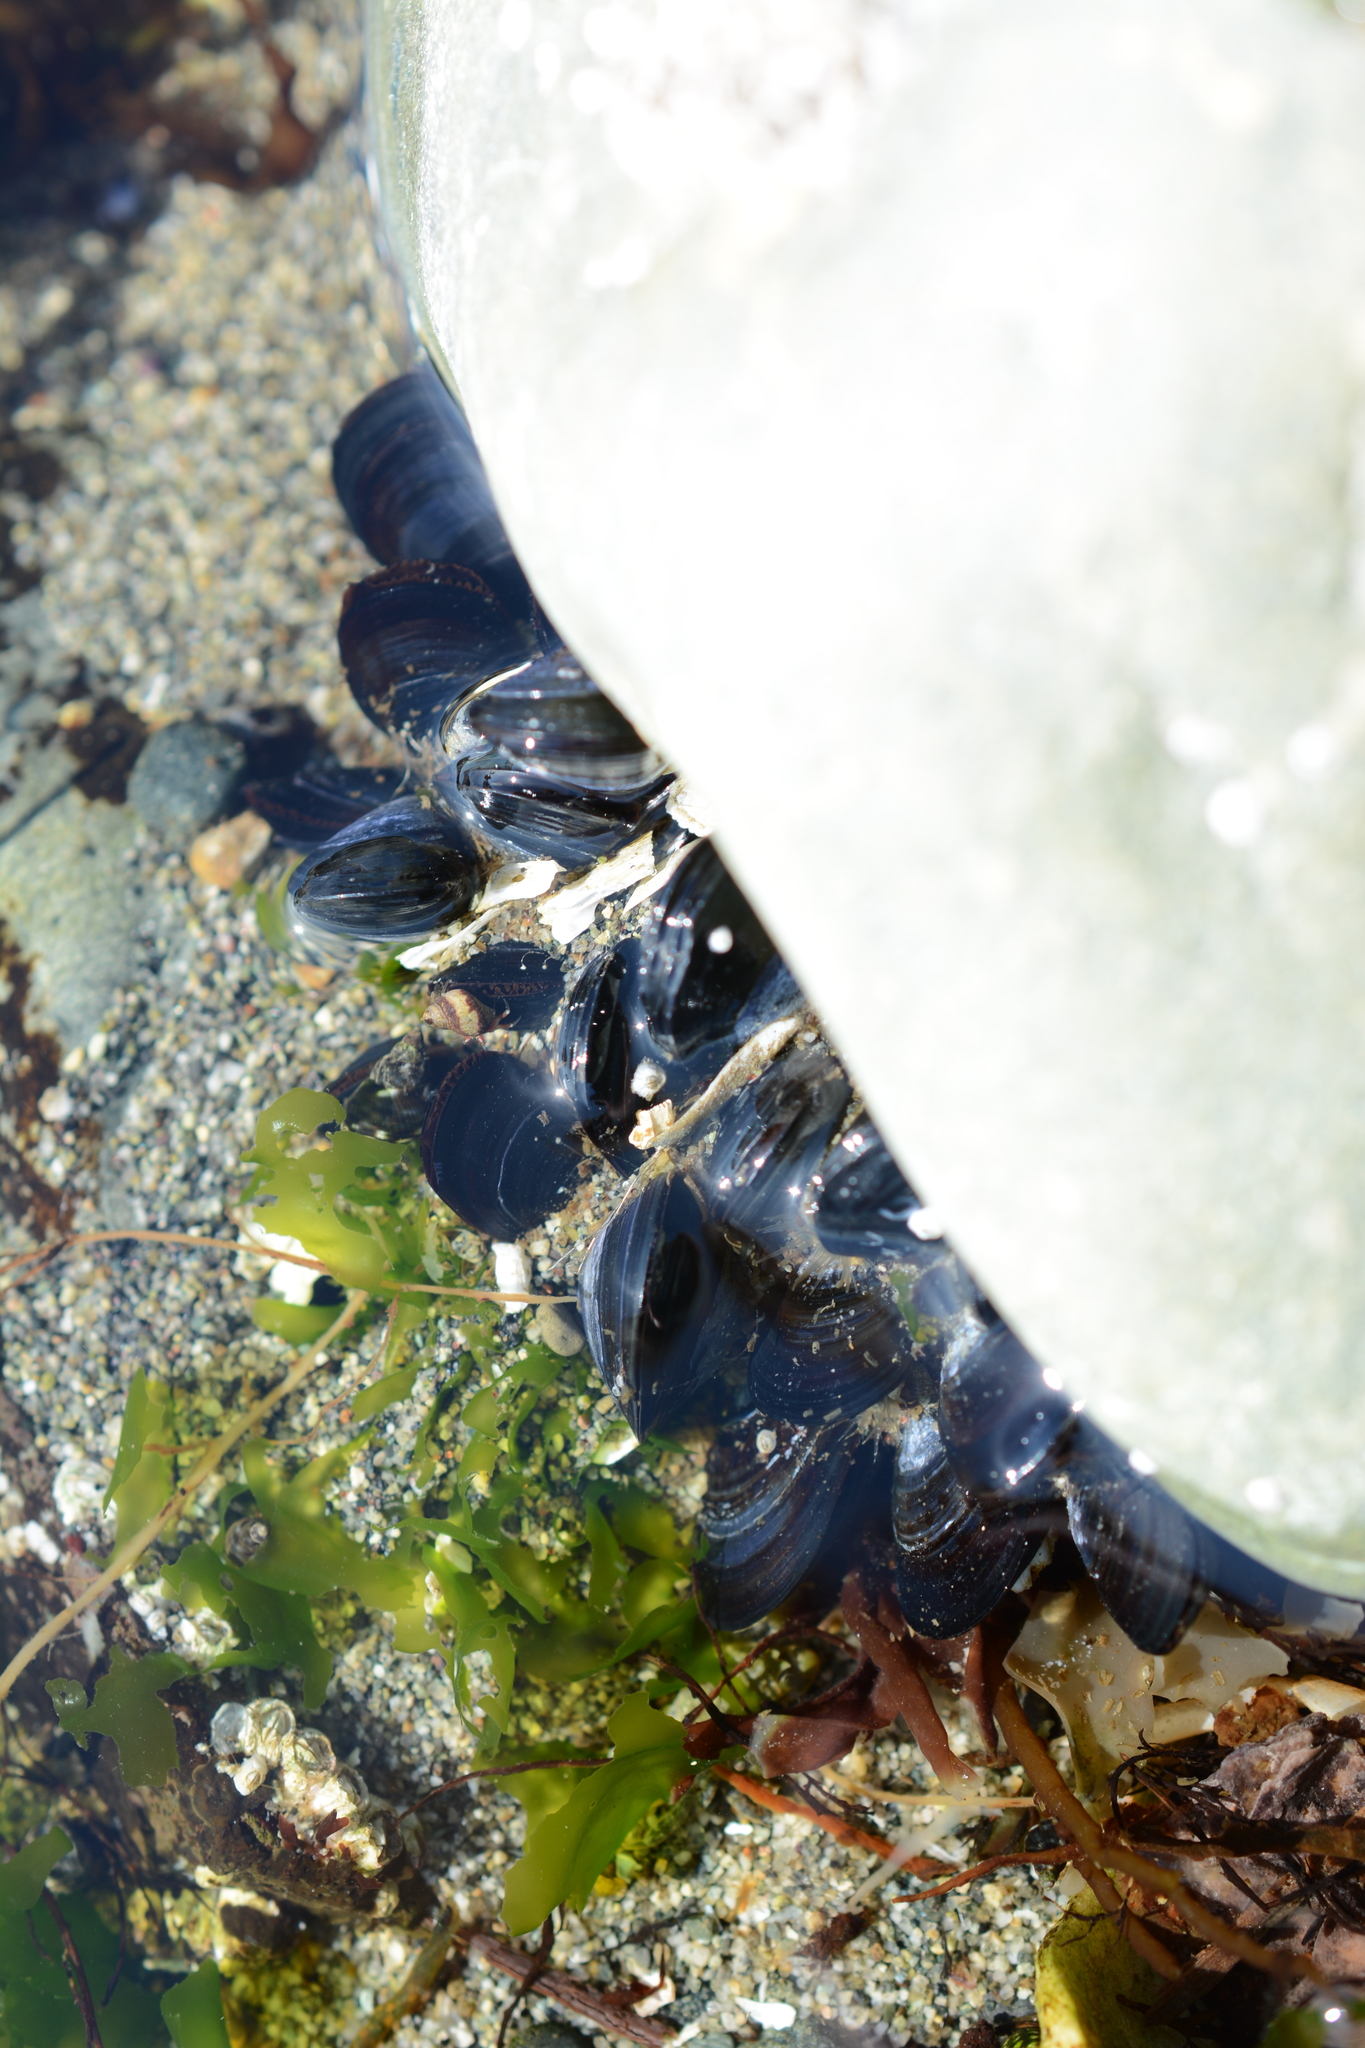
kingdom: Animalia
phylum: Mollusca
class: Bivalvia
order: Mytilida
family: Mytilidae
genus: Mytilus
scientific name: Mytilus
